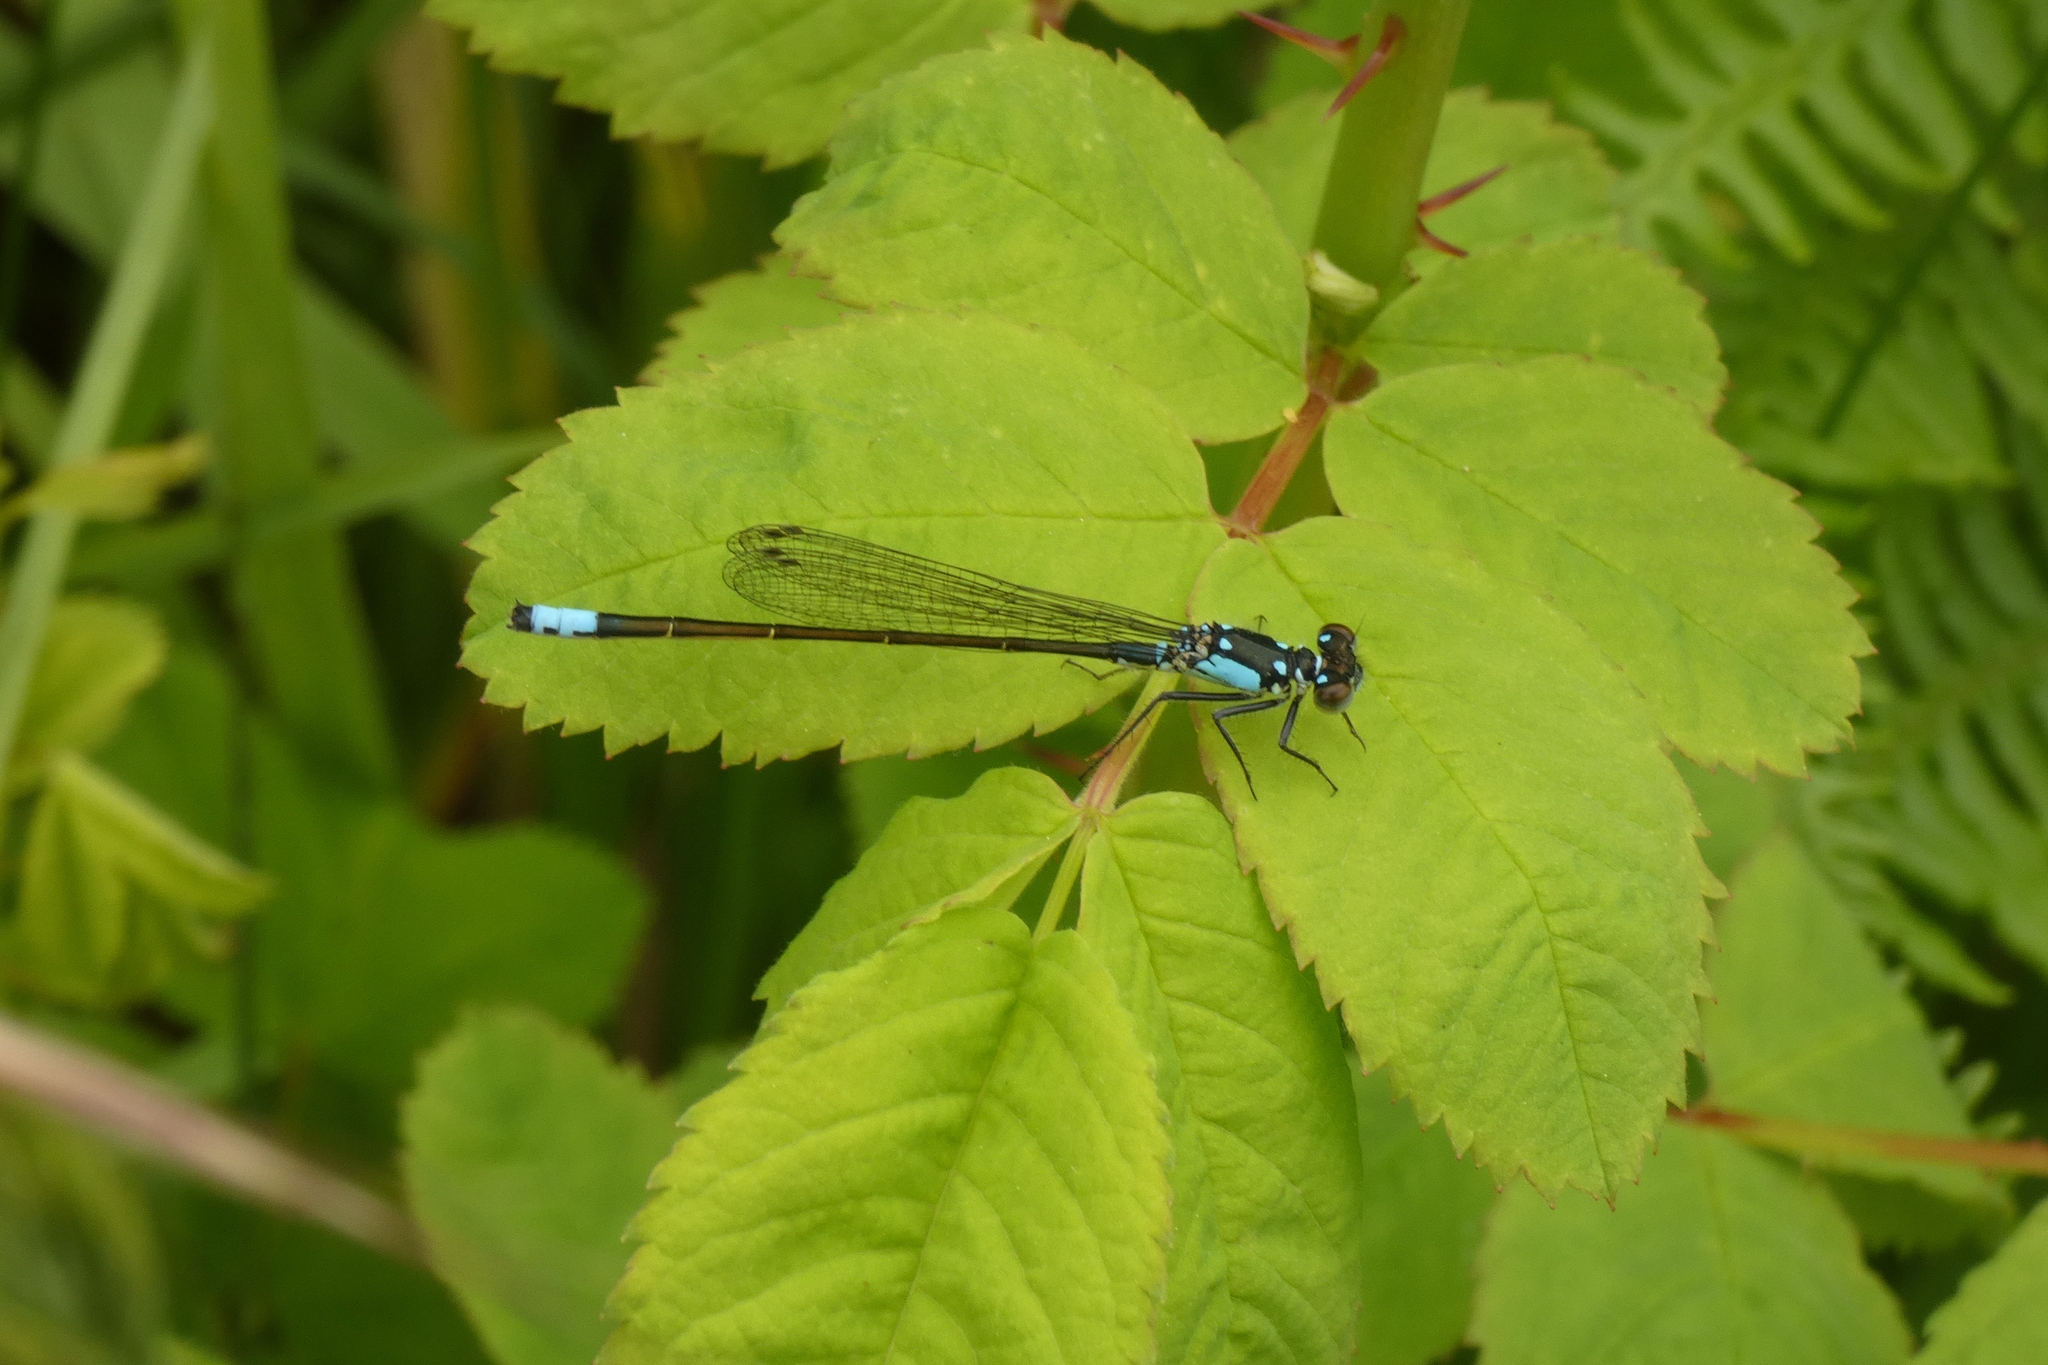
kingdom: Animalia
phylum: Arthropoda
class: Insecta
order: Odonata
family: Coenagrionidae
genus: Ischnura
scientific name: Ischnura cervula
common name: Pacific forktail
